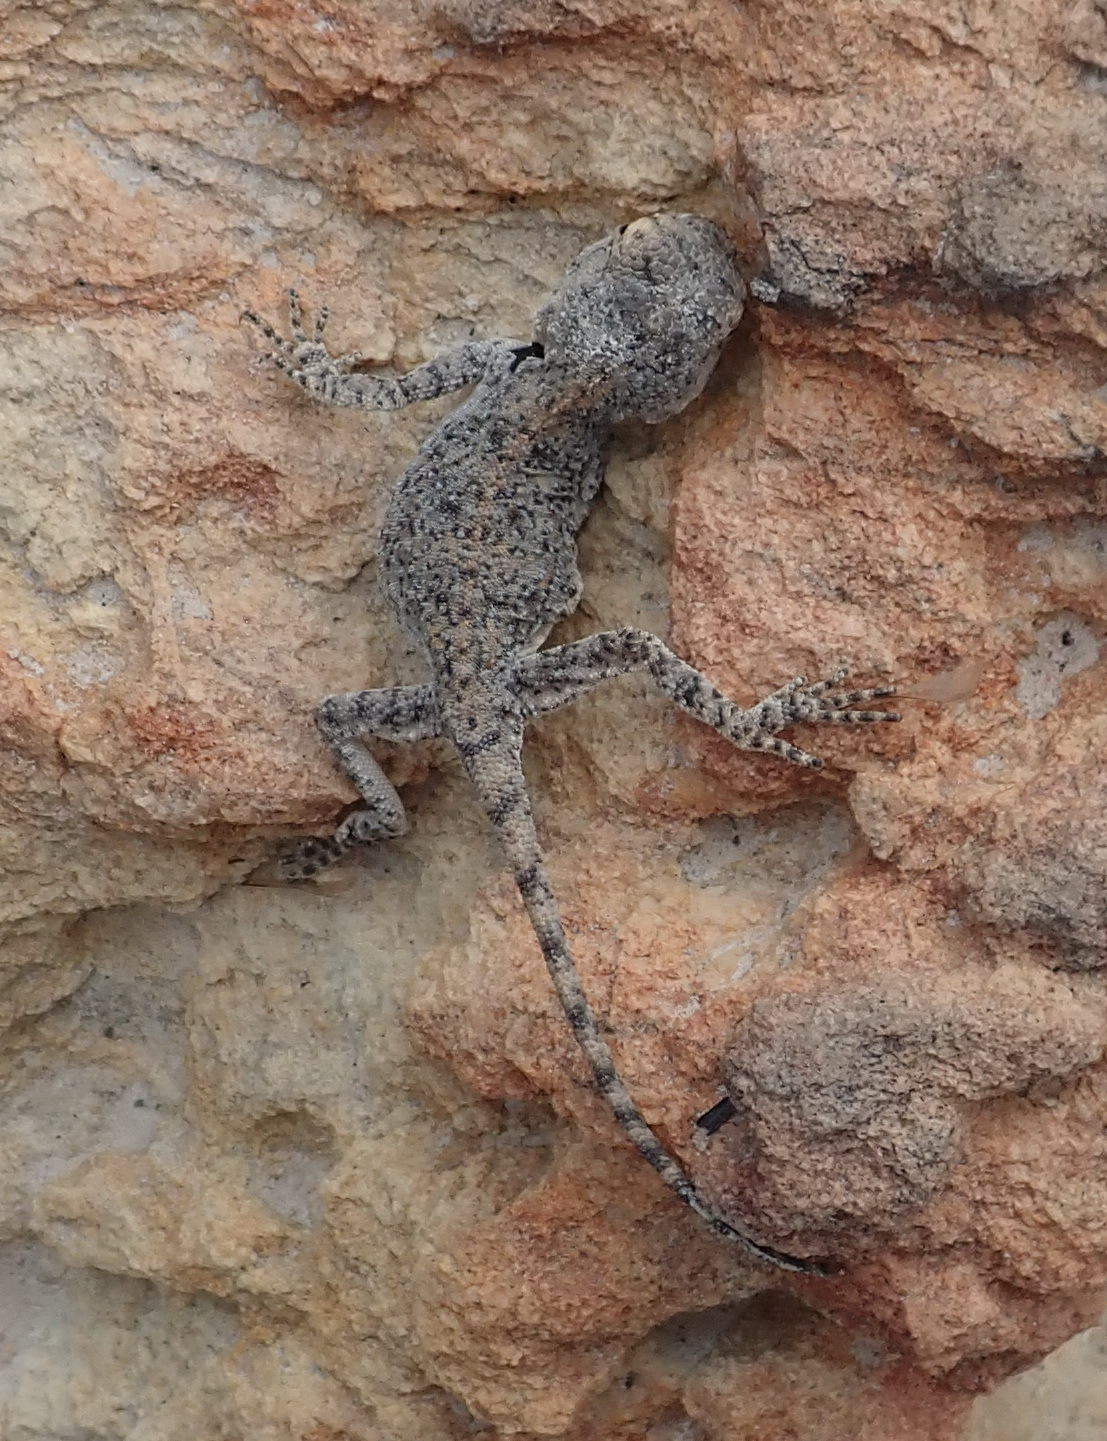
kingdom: Animalia
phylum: Chordata
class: Squamata
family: Agamidae
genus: Agama
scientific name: Agama atra
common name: Southern african rock agama
